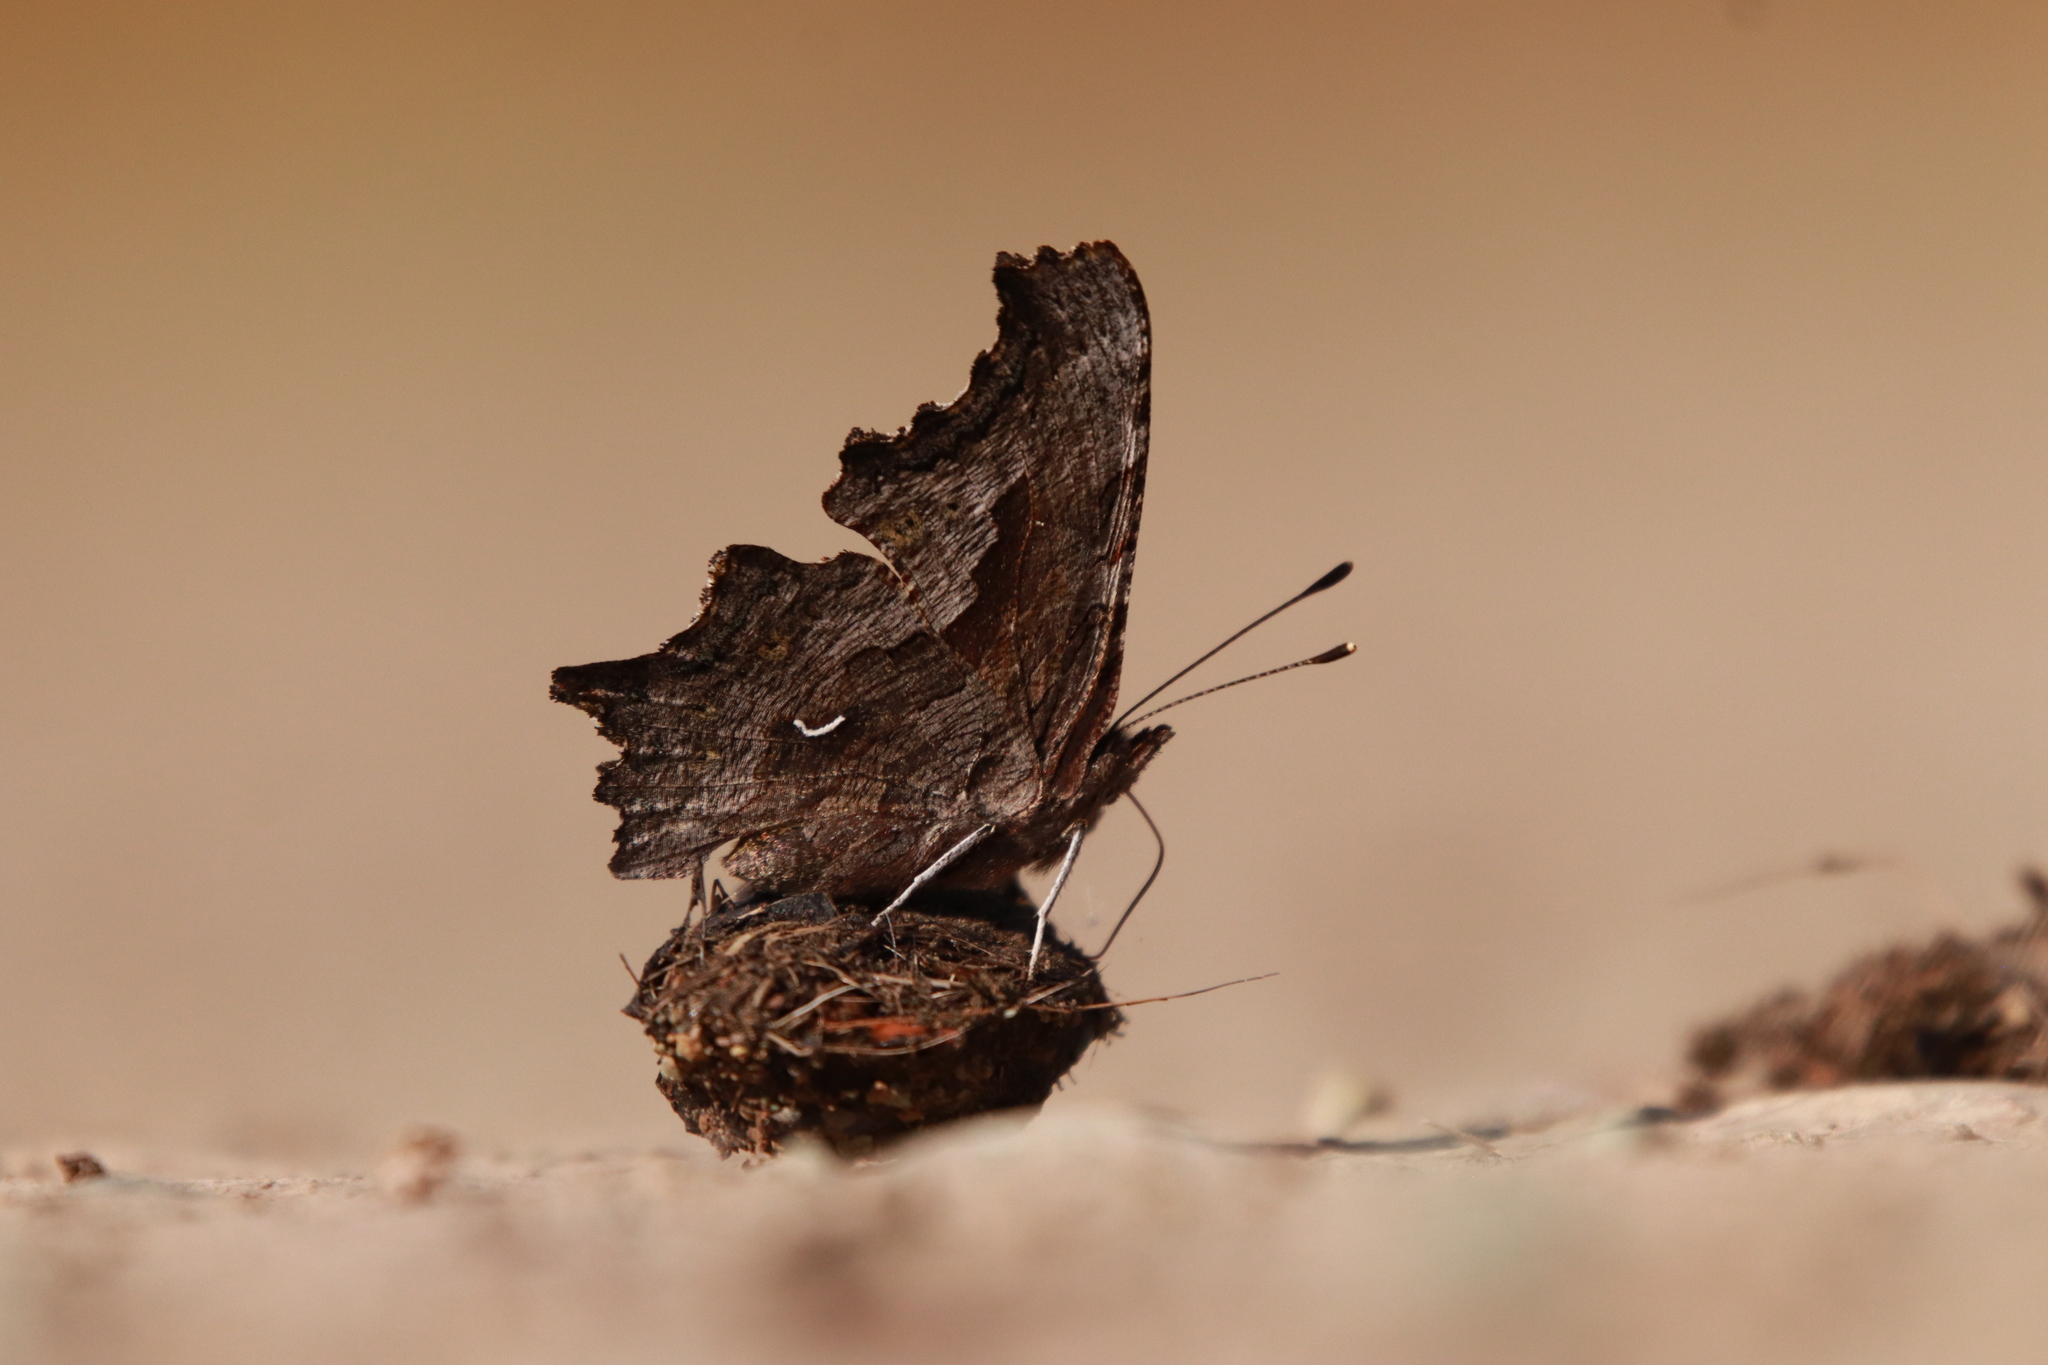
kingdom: Animalia
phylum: Arthropoda
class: Insecta
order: Lepidoptera
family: Nymphalidae
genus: Polygonia
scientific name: Polygonia gracilis
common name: Hoary comma
